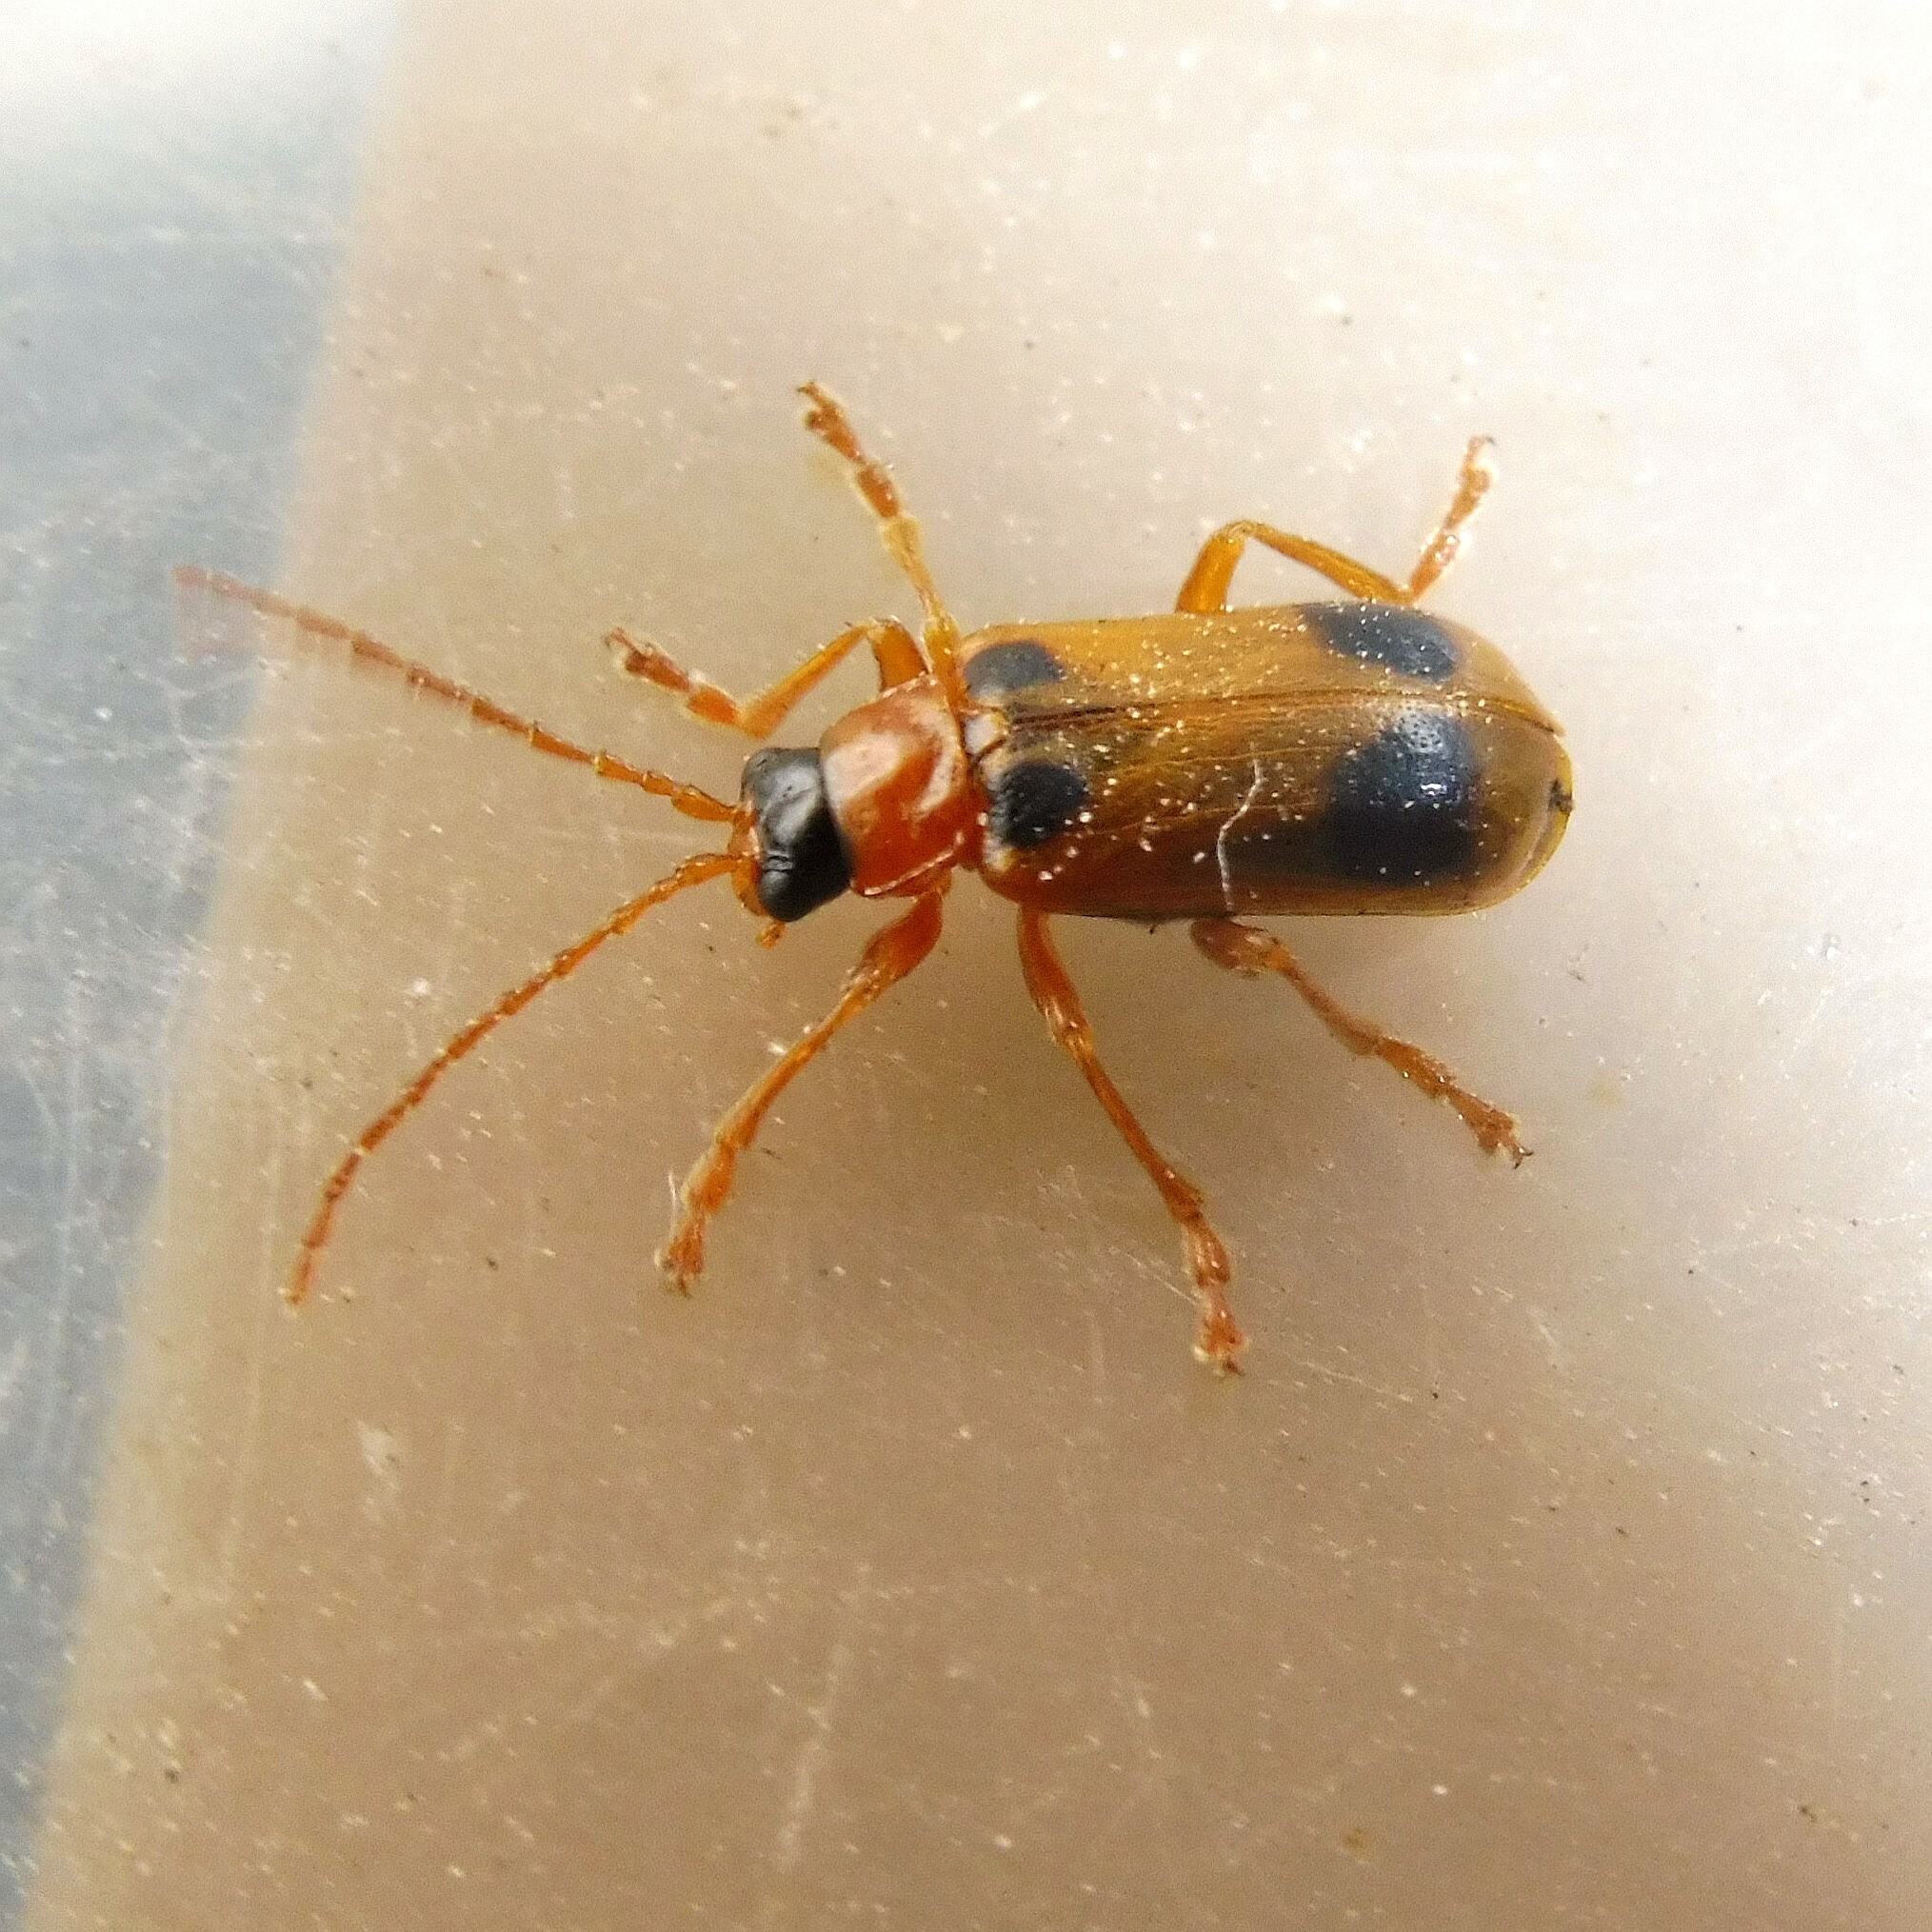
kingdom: Animalia
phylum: Arthropoda
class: Insecta
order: Coleoptera
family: Chrysomelidae
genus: Phyllobrotica
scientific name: Phyllobrotica quadrimaculata
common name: Skullcap leaf beetle
